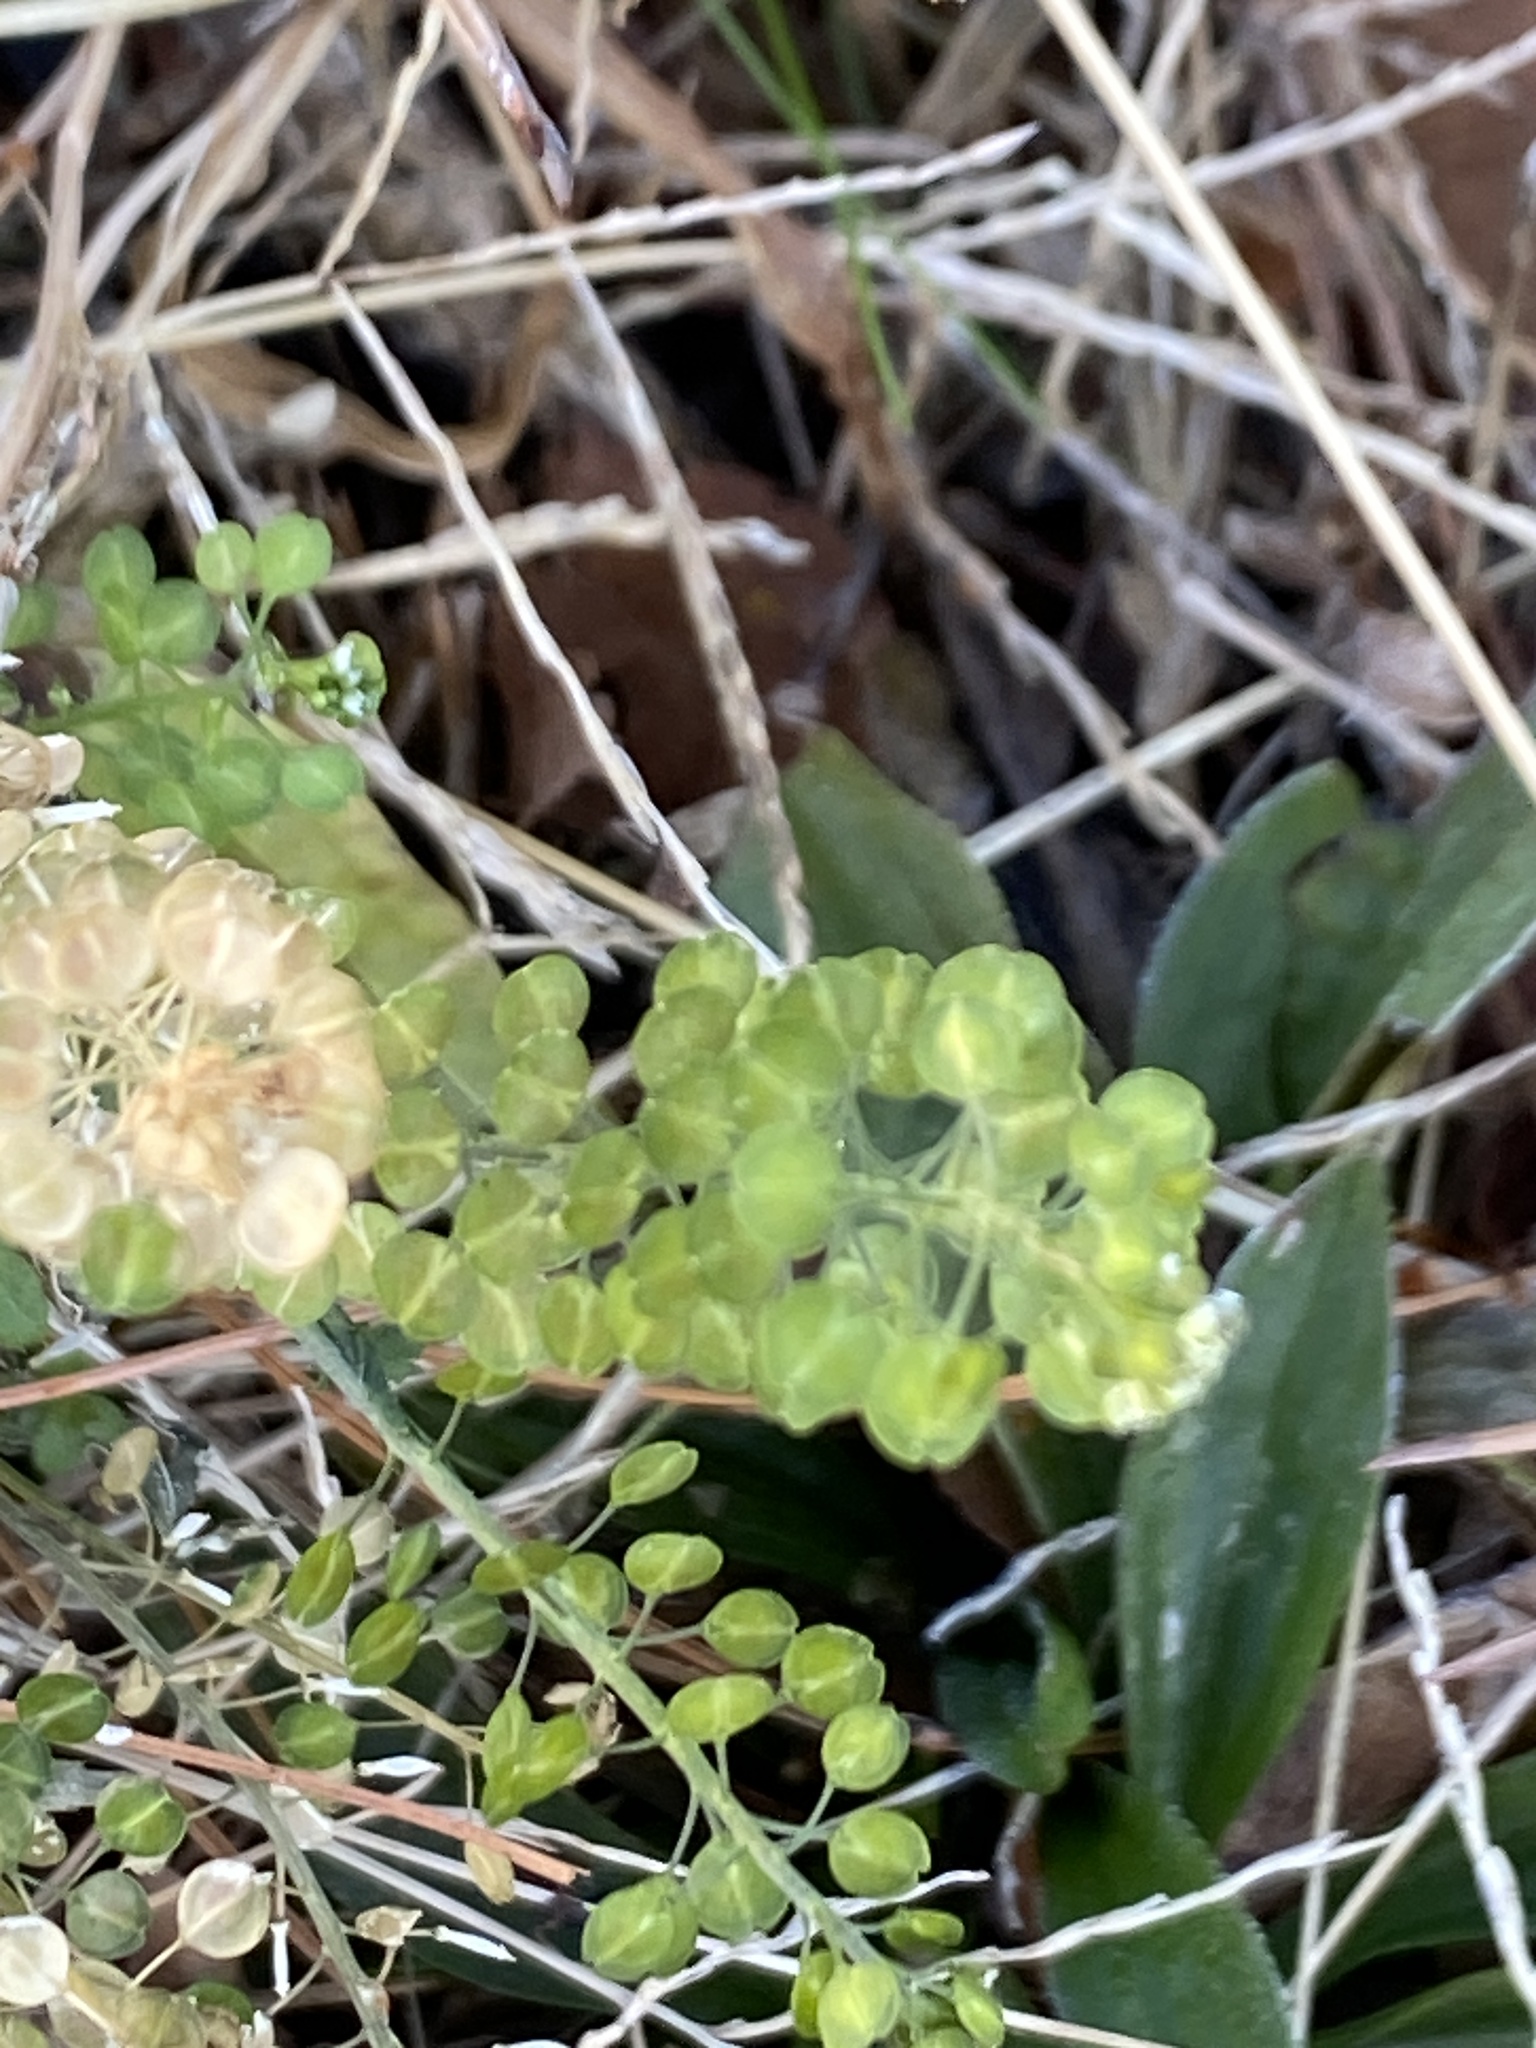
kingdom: Plantae
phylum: Tracheophyta
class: Magnoliopsida
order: Brassicales
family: Brassicaceae
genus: Lepidium
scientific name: Lepidium virginicum
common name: Least pepperwort
